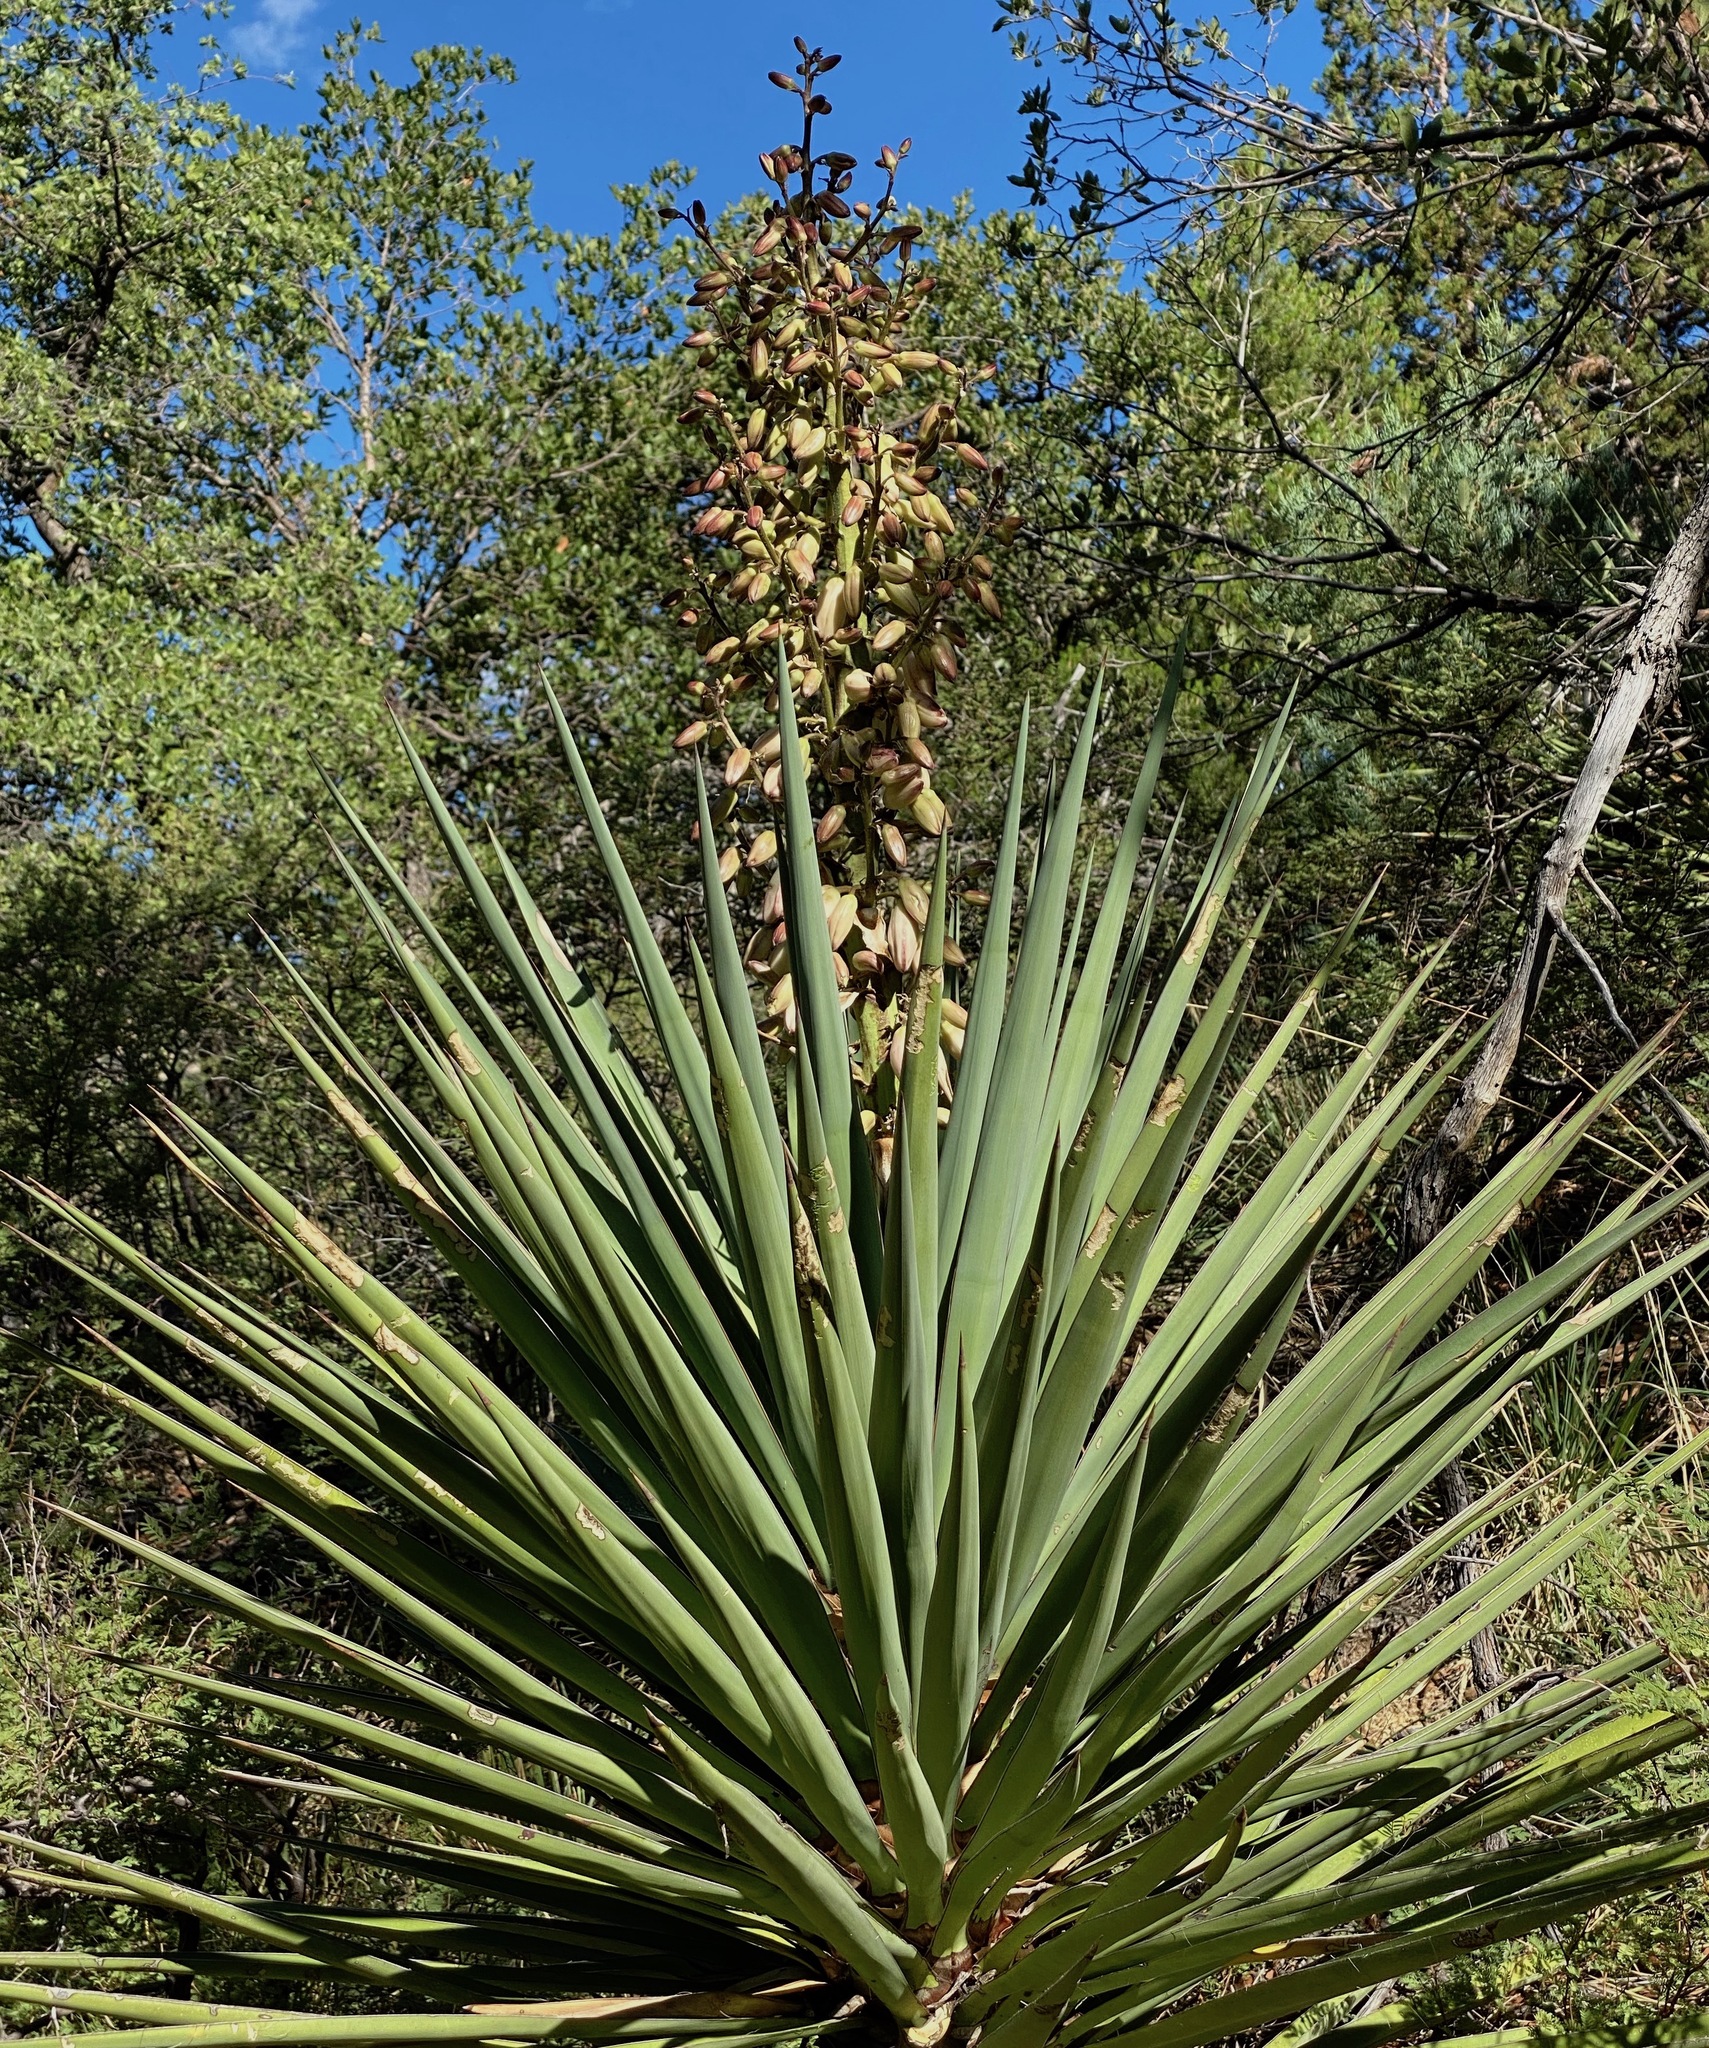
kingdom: Plantae
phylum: Tracheophyta
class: Liliopsida
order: Asparagales
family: Asparagaceae
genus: Yucca
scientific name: Yucca madrensis
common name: Hoary yucca
